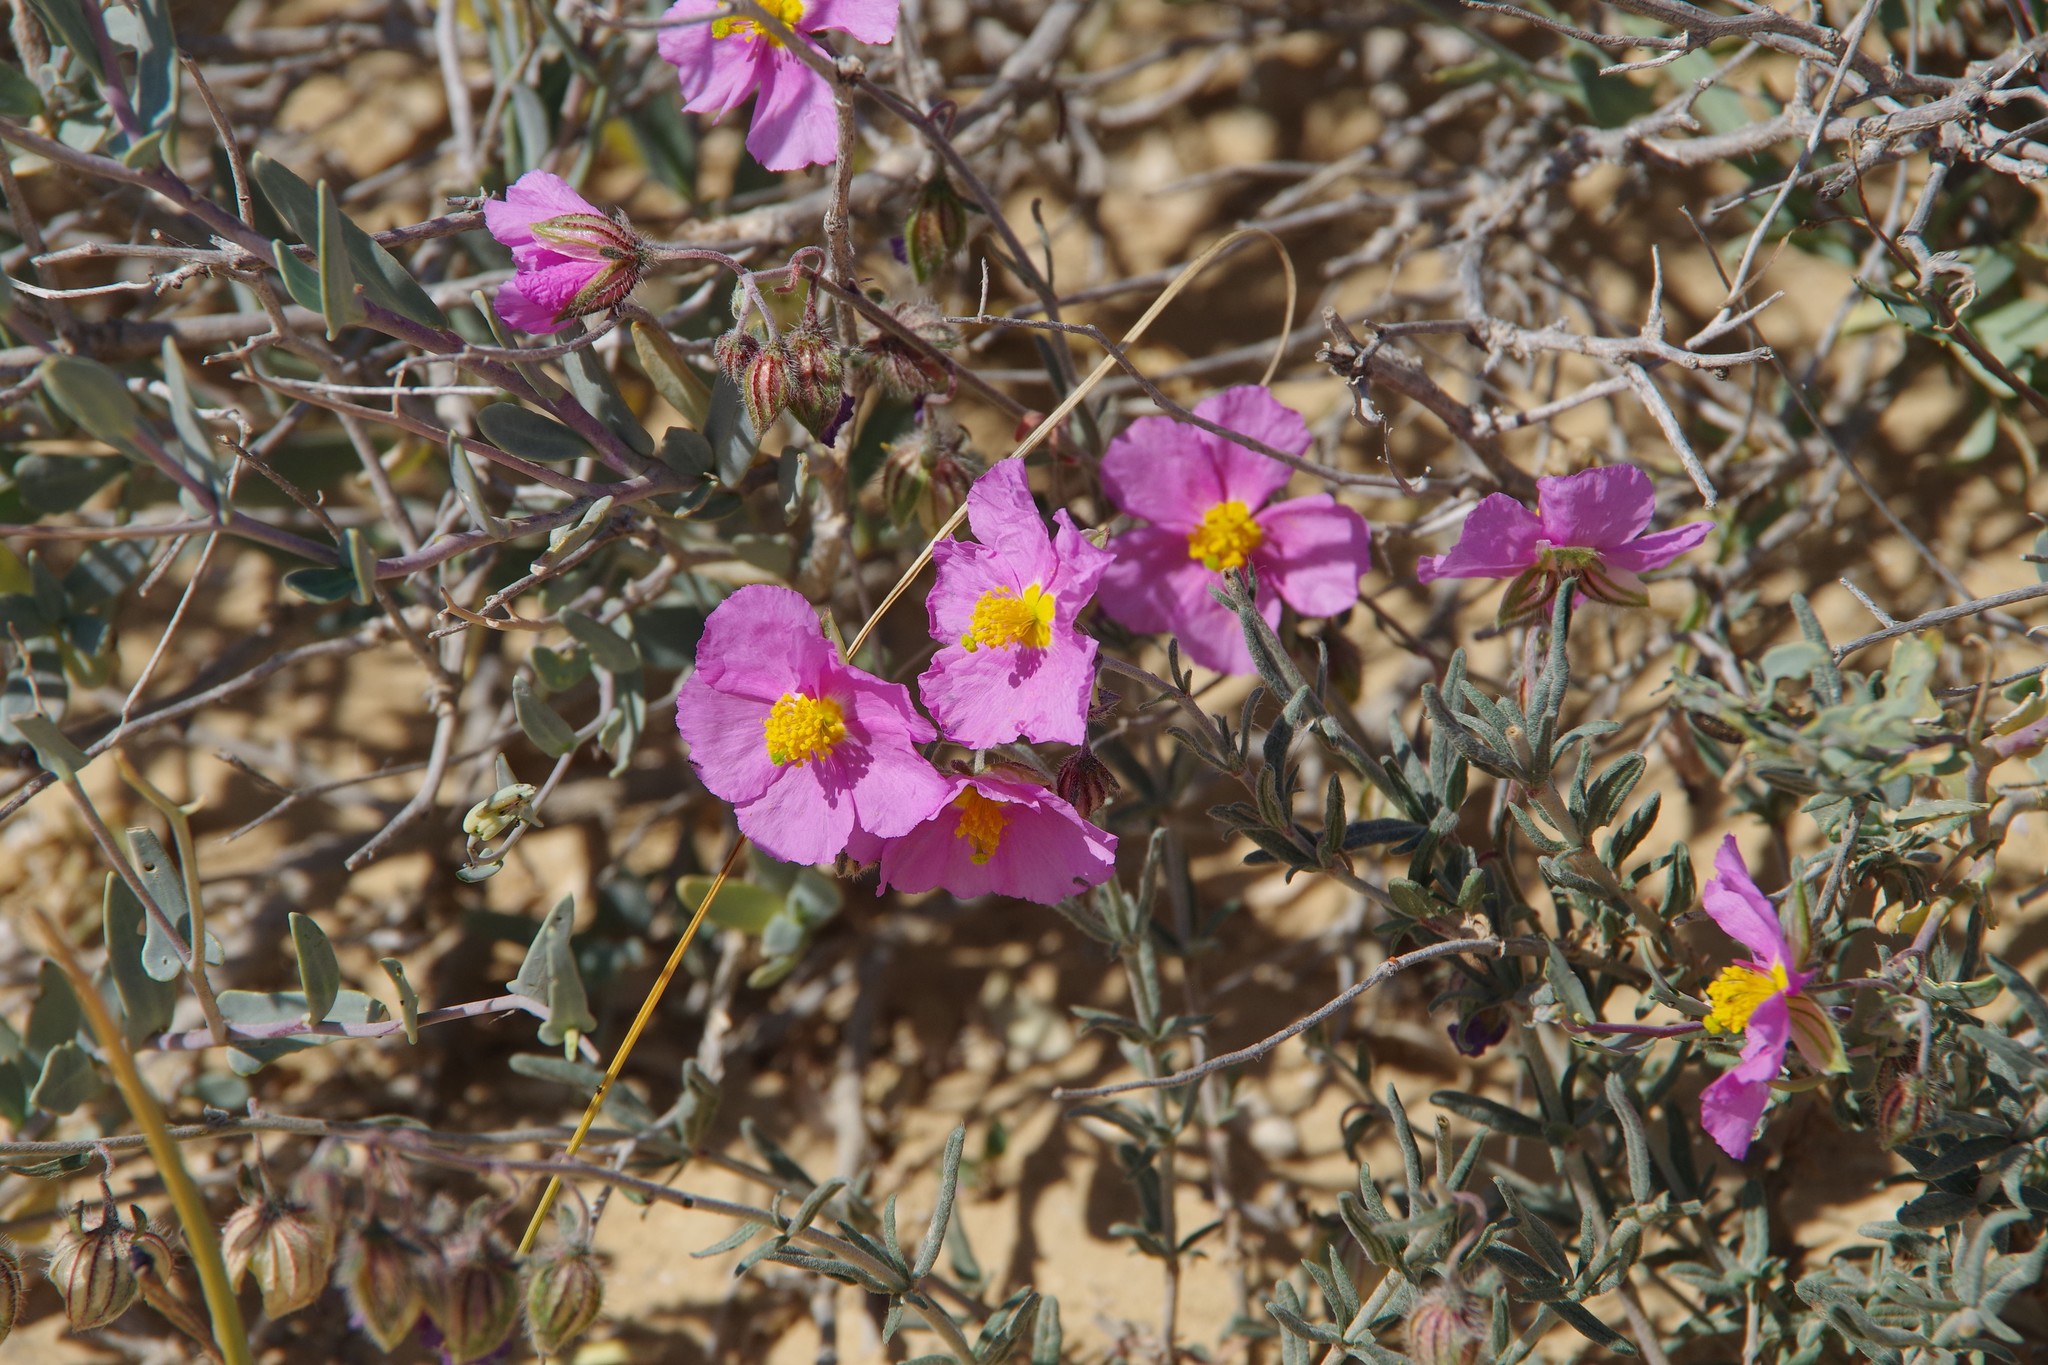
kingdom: Plantae
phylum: Tracheophyta
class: Magnoliopsida
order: Malvales
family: Cistaceae
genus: Helianthemum
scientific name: Helianthemum vesicarium
